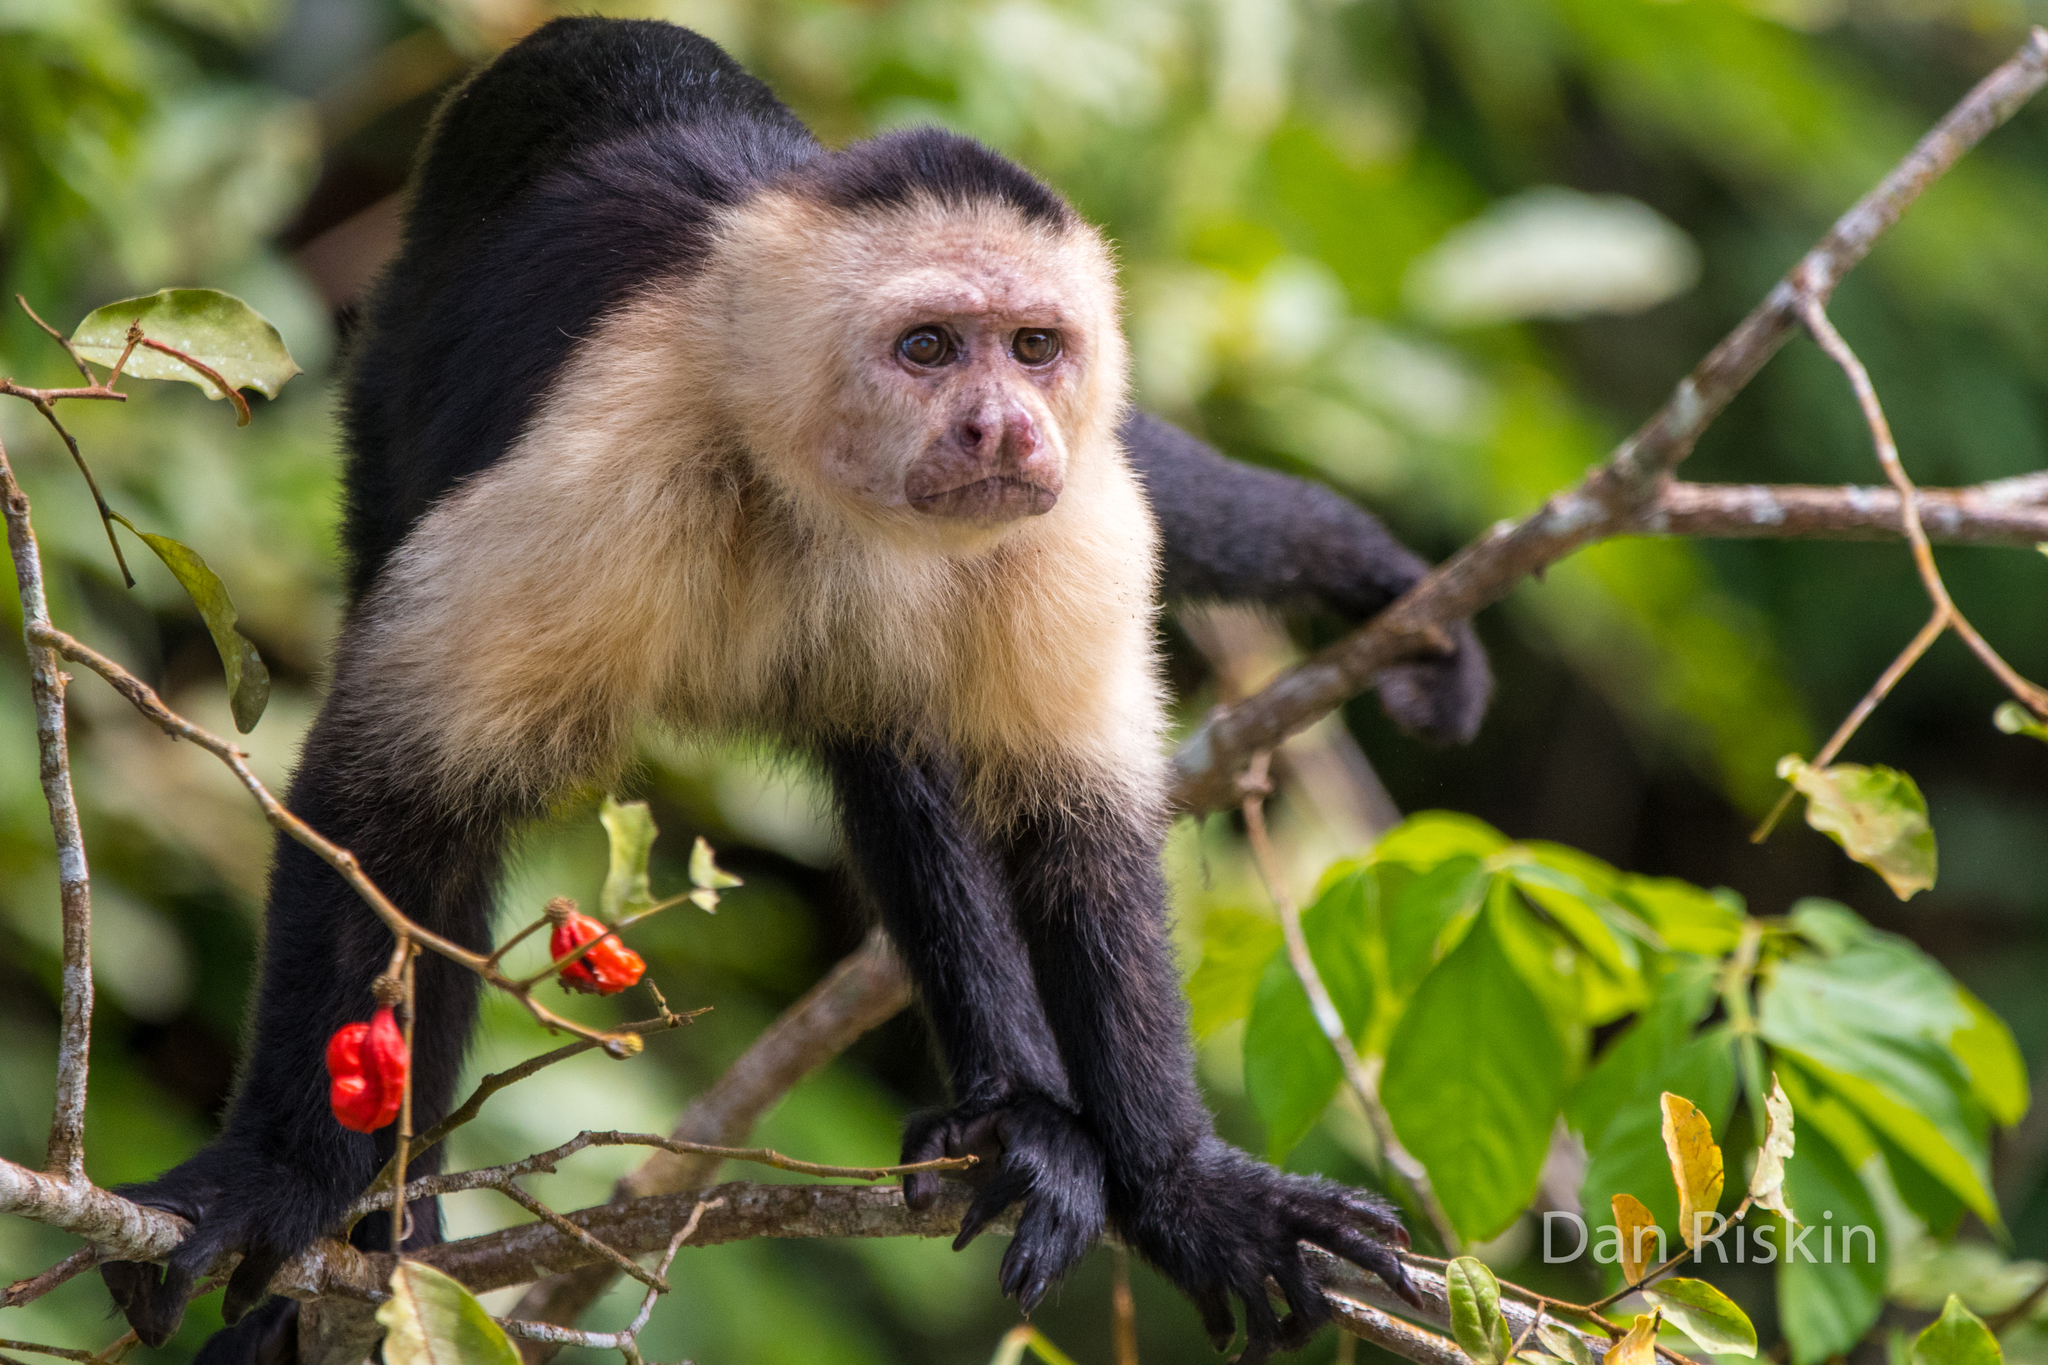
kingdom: Animalia
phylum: Chordata
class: Mammalia
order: Primates
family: Cebidae
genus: Cebus
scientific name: Cebus imitator
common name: Panamanian white-faced capuchin
